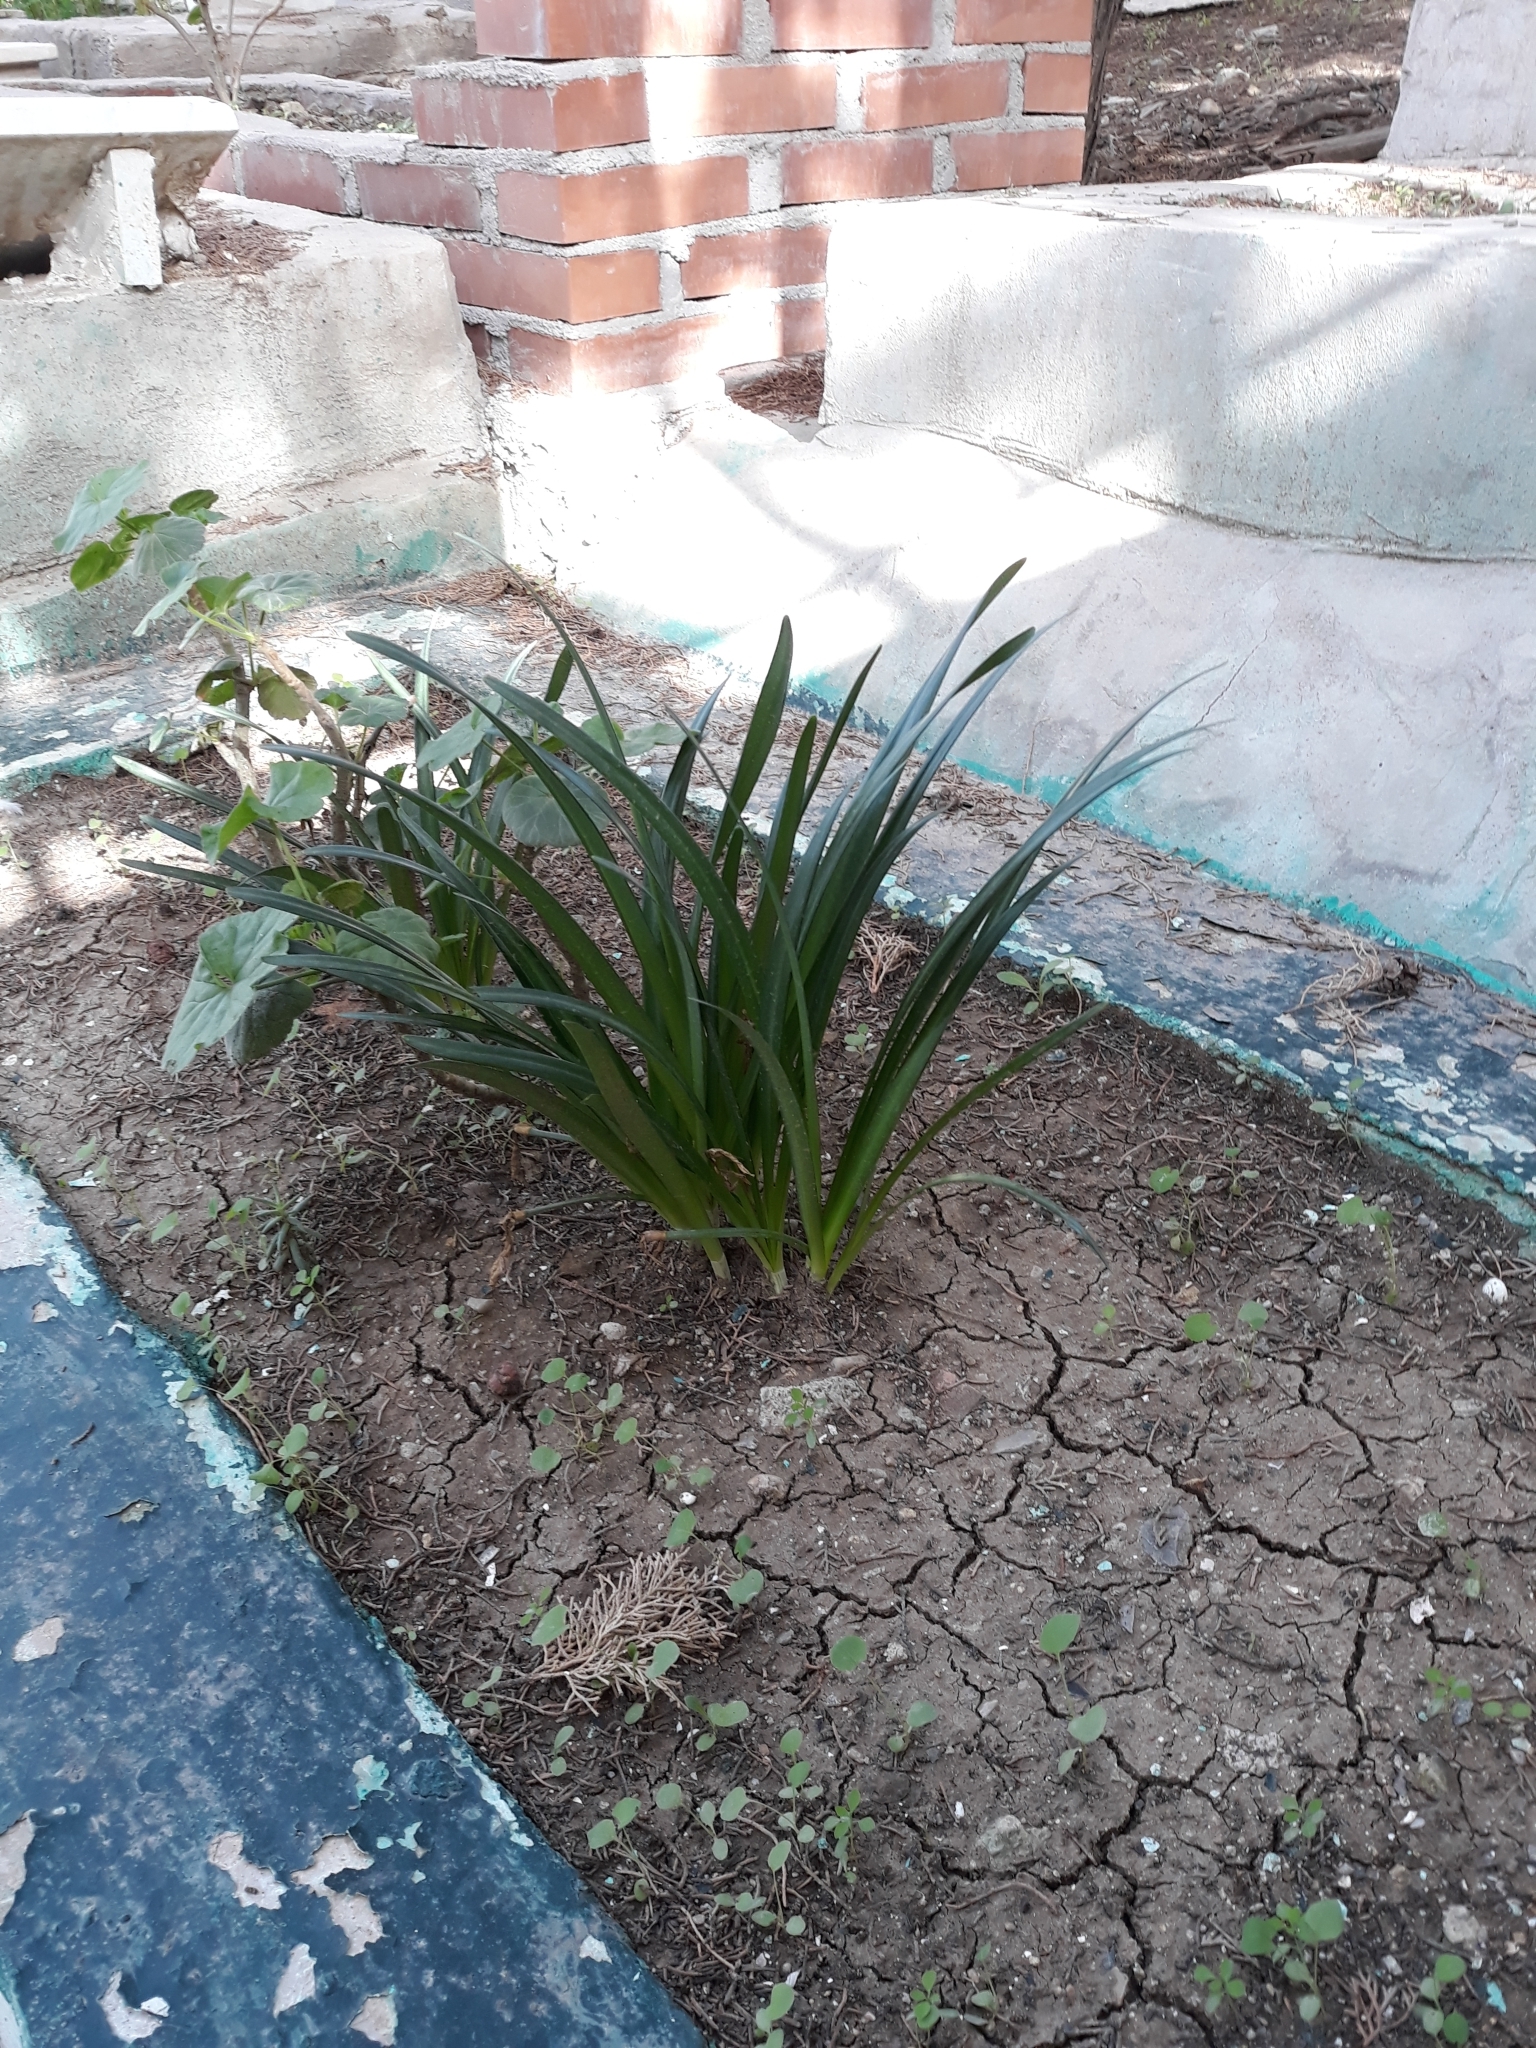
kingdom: Plantae
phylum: Tracheophyta
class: Liliopsida
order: Asparagales
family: Amaryllidaceae
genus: Sternbergia
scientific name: Sternbergia lutea
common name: Winter daffodil
